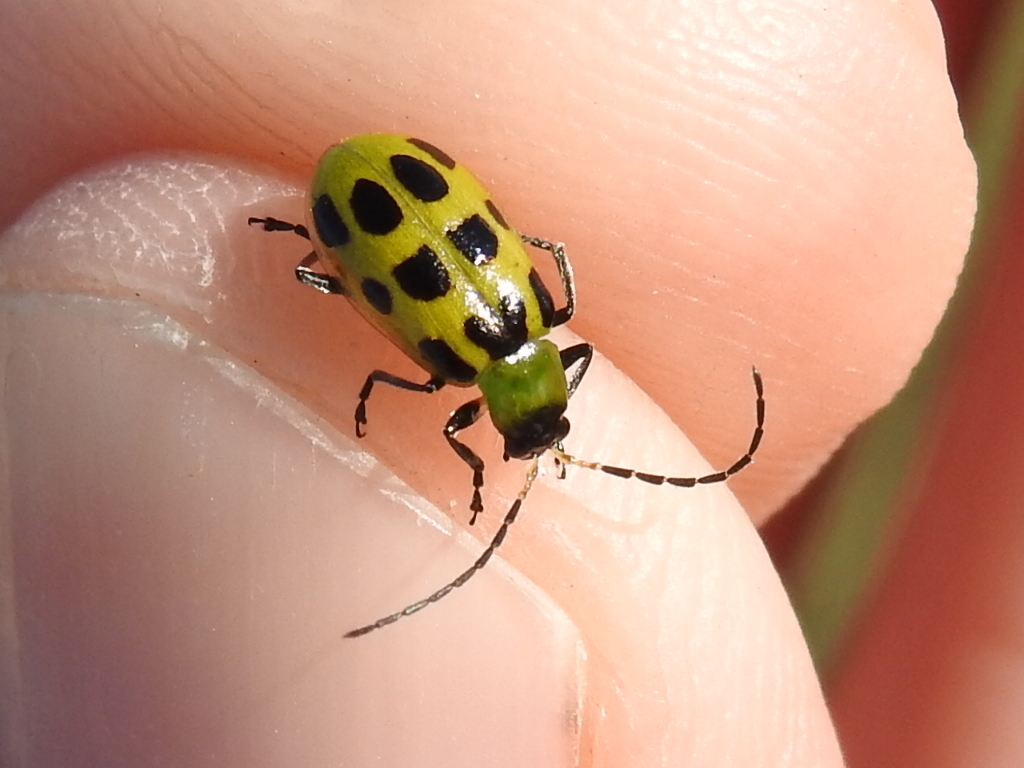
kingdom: Animalia
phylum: Arthropoda
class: Insecta
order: Coleoptera
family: Chrysomelidae
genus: Diabrotica
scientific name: Diabrotica undecimpunctata
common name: Spotted cucumber beetle
